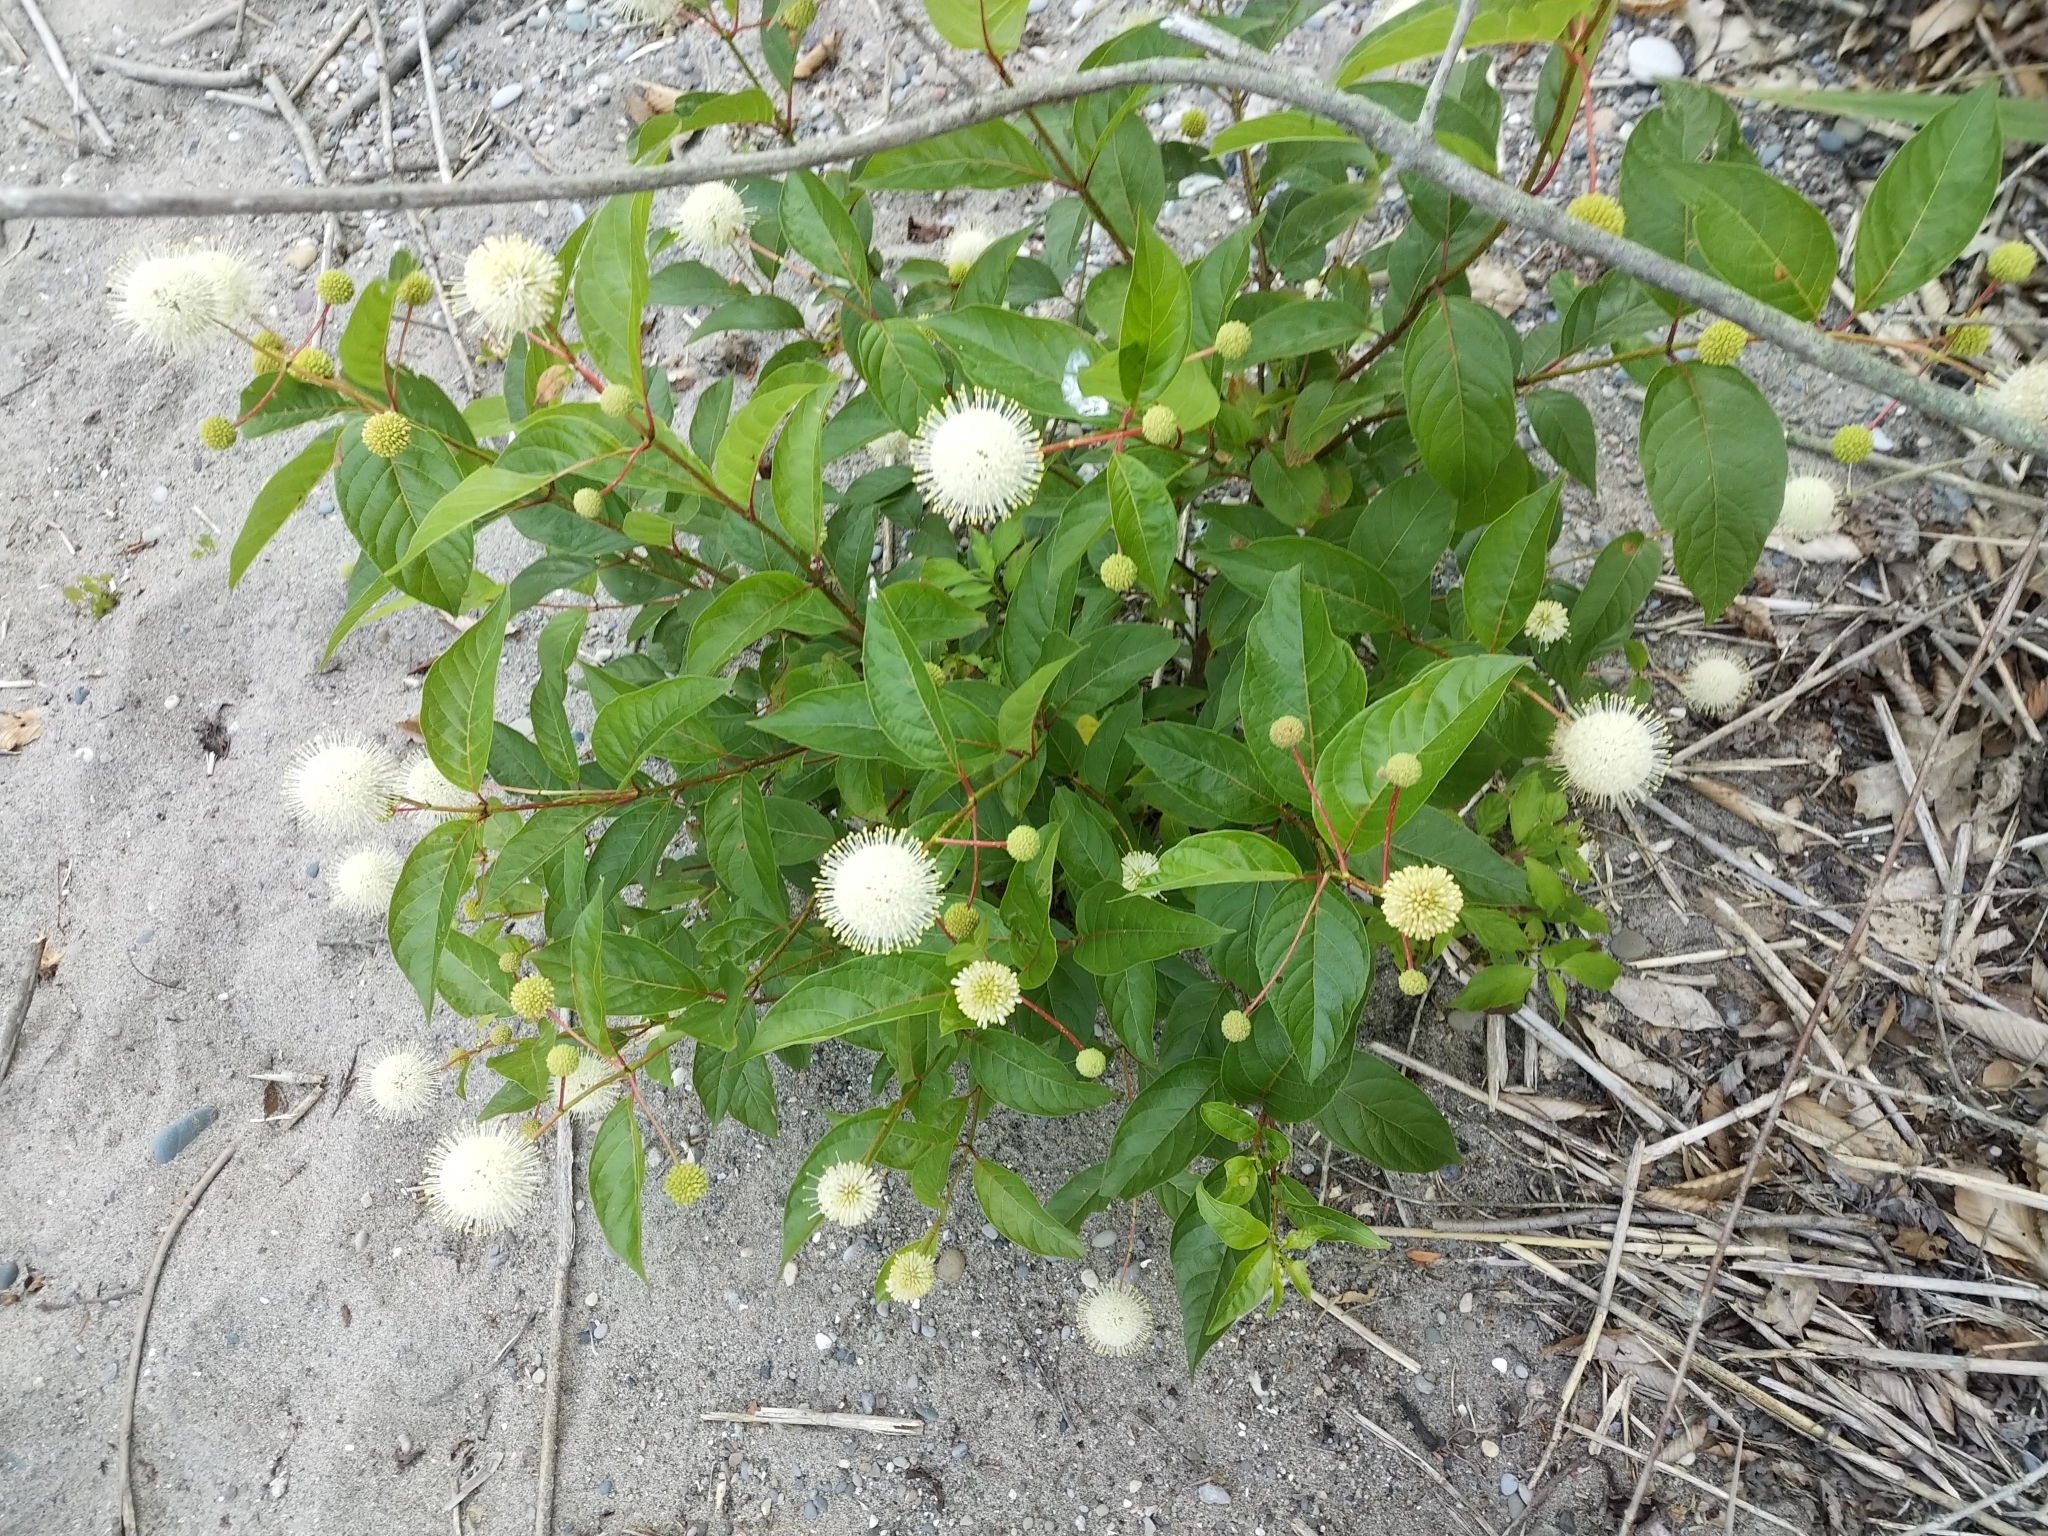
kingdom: Plantae
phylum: Tracheophyta
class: Magnoliopsida
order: Gentianales
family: Rubiaceae
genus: Cephalanthus
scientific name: Cephalanthus occidentalis
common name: Button-willow
